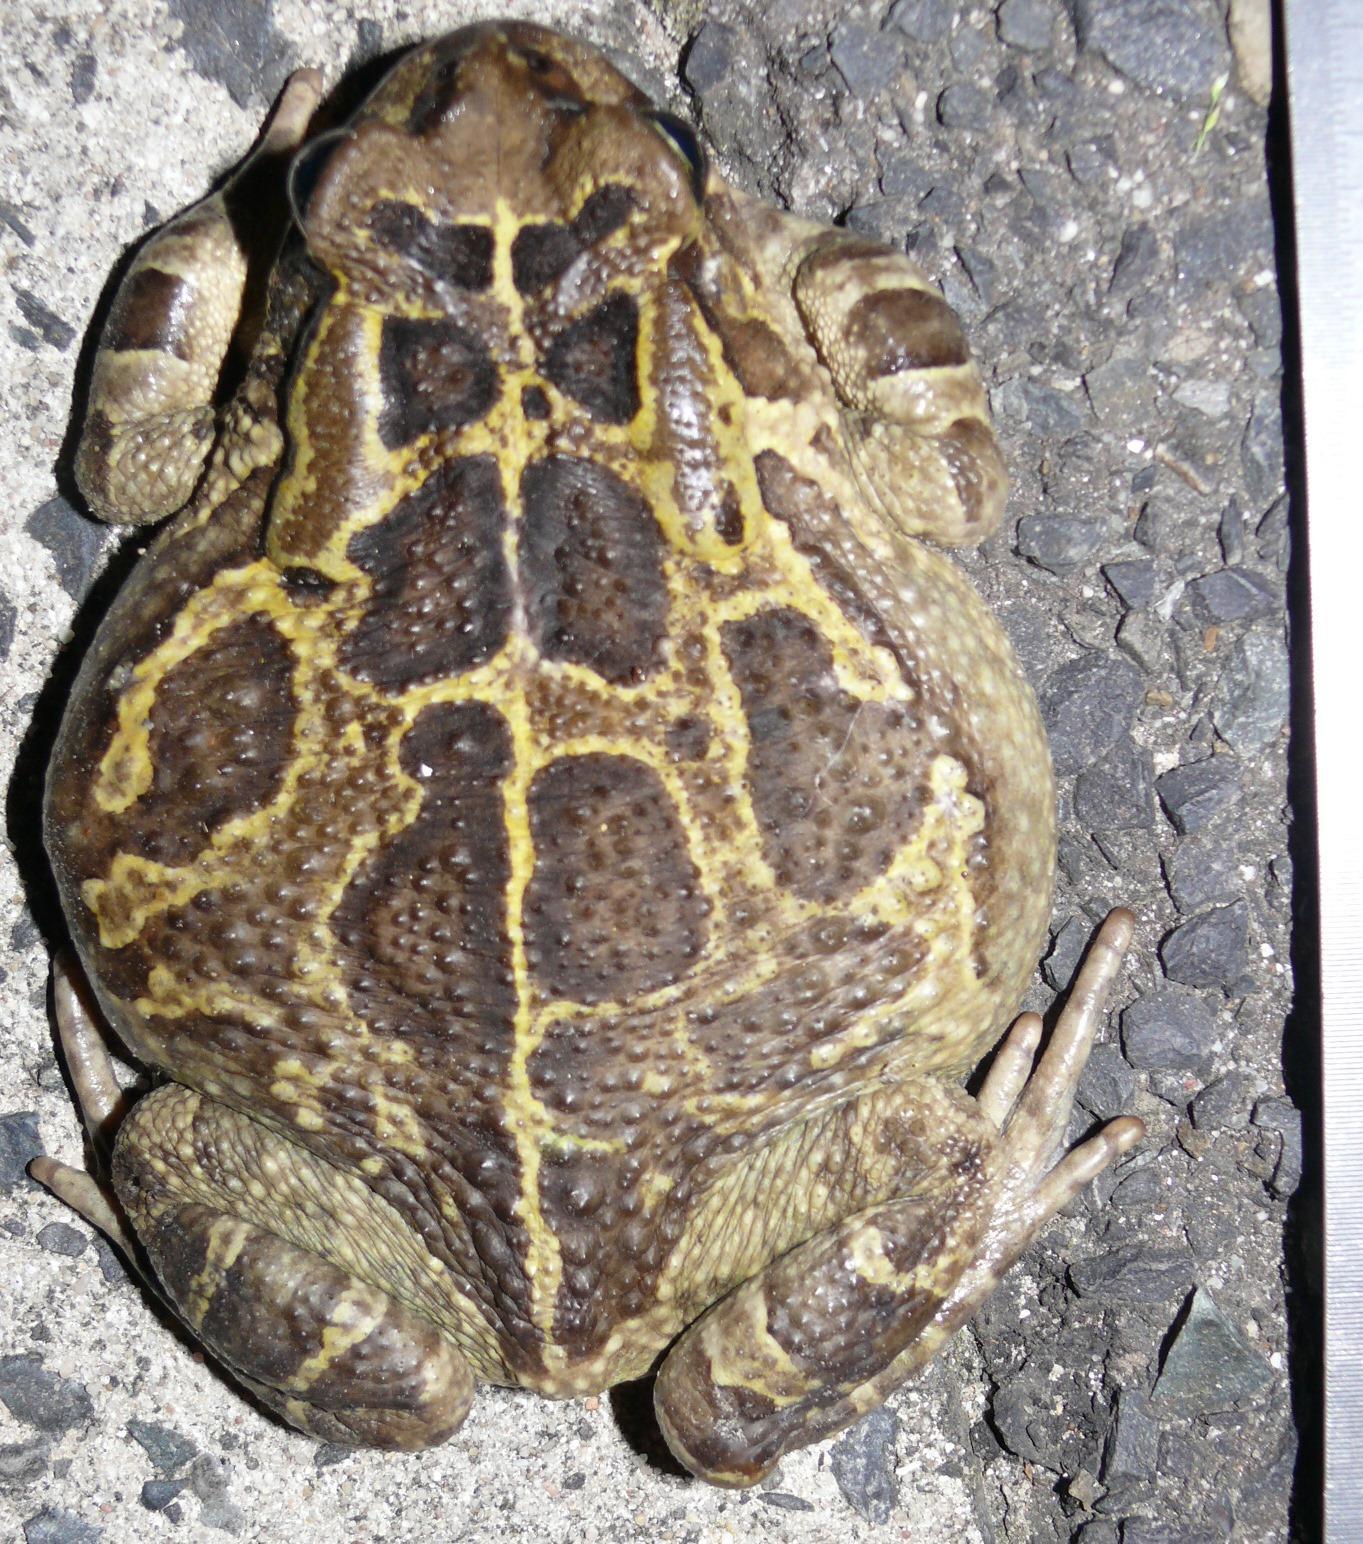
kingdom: Animalia
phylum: Chordata
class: Amphibia
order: Anura
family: Bufonidae
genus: Sclerophrys
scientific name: Sclerophrys pantherina
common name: Panther toad
